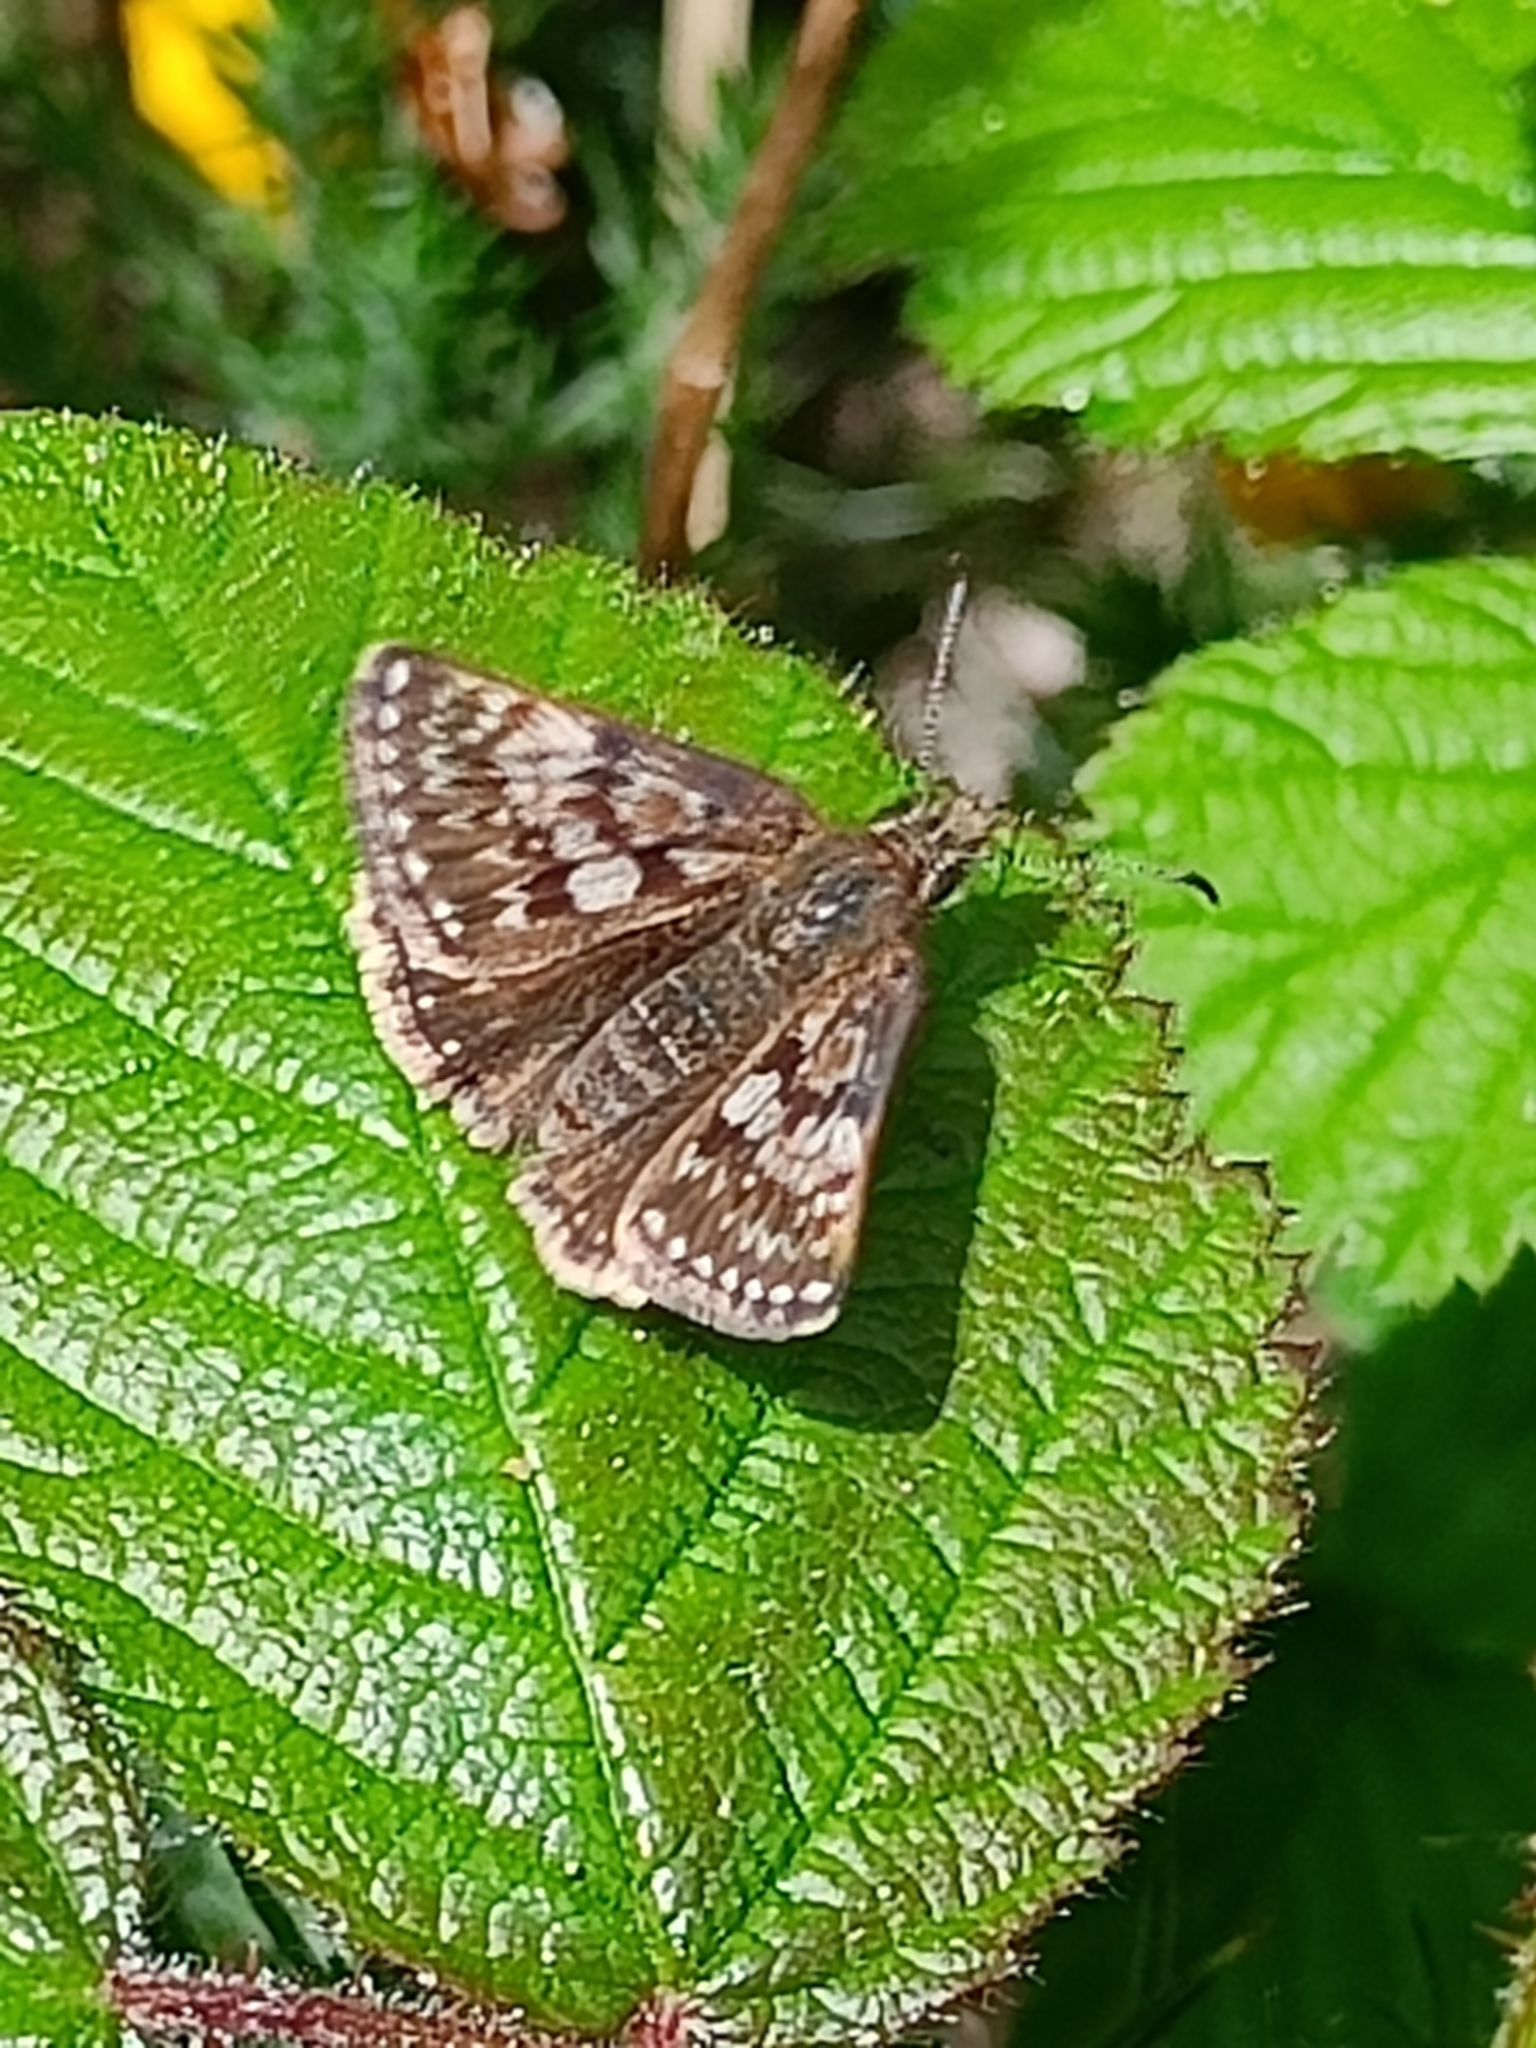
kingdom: Animalia
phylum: Arthropoda
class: Insecta
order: Lepidoptera
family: Hesperiidae
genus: Erynnis
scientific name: Erynnis tages
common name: Dingy skipper
